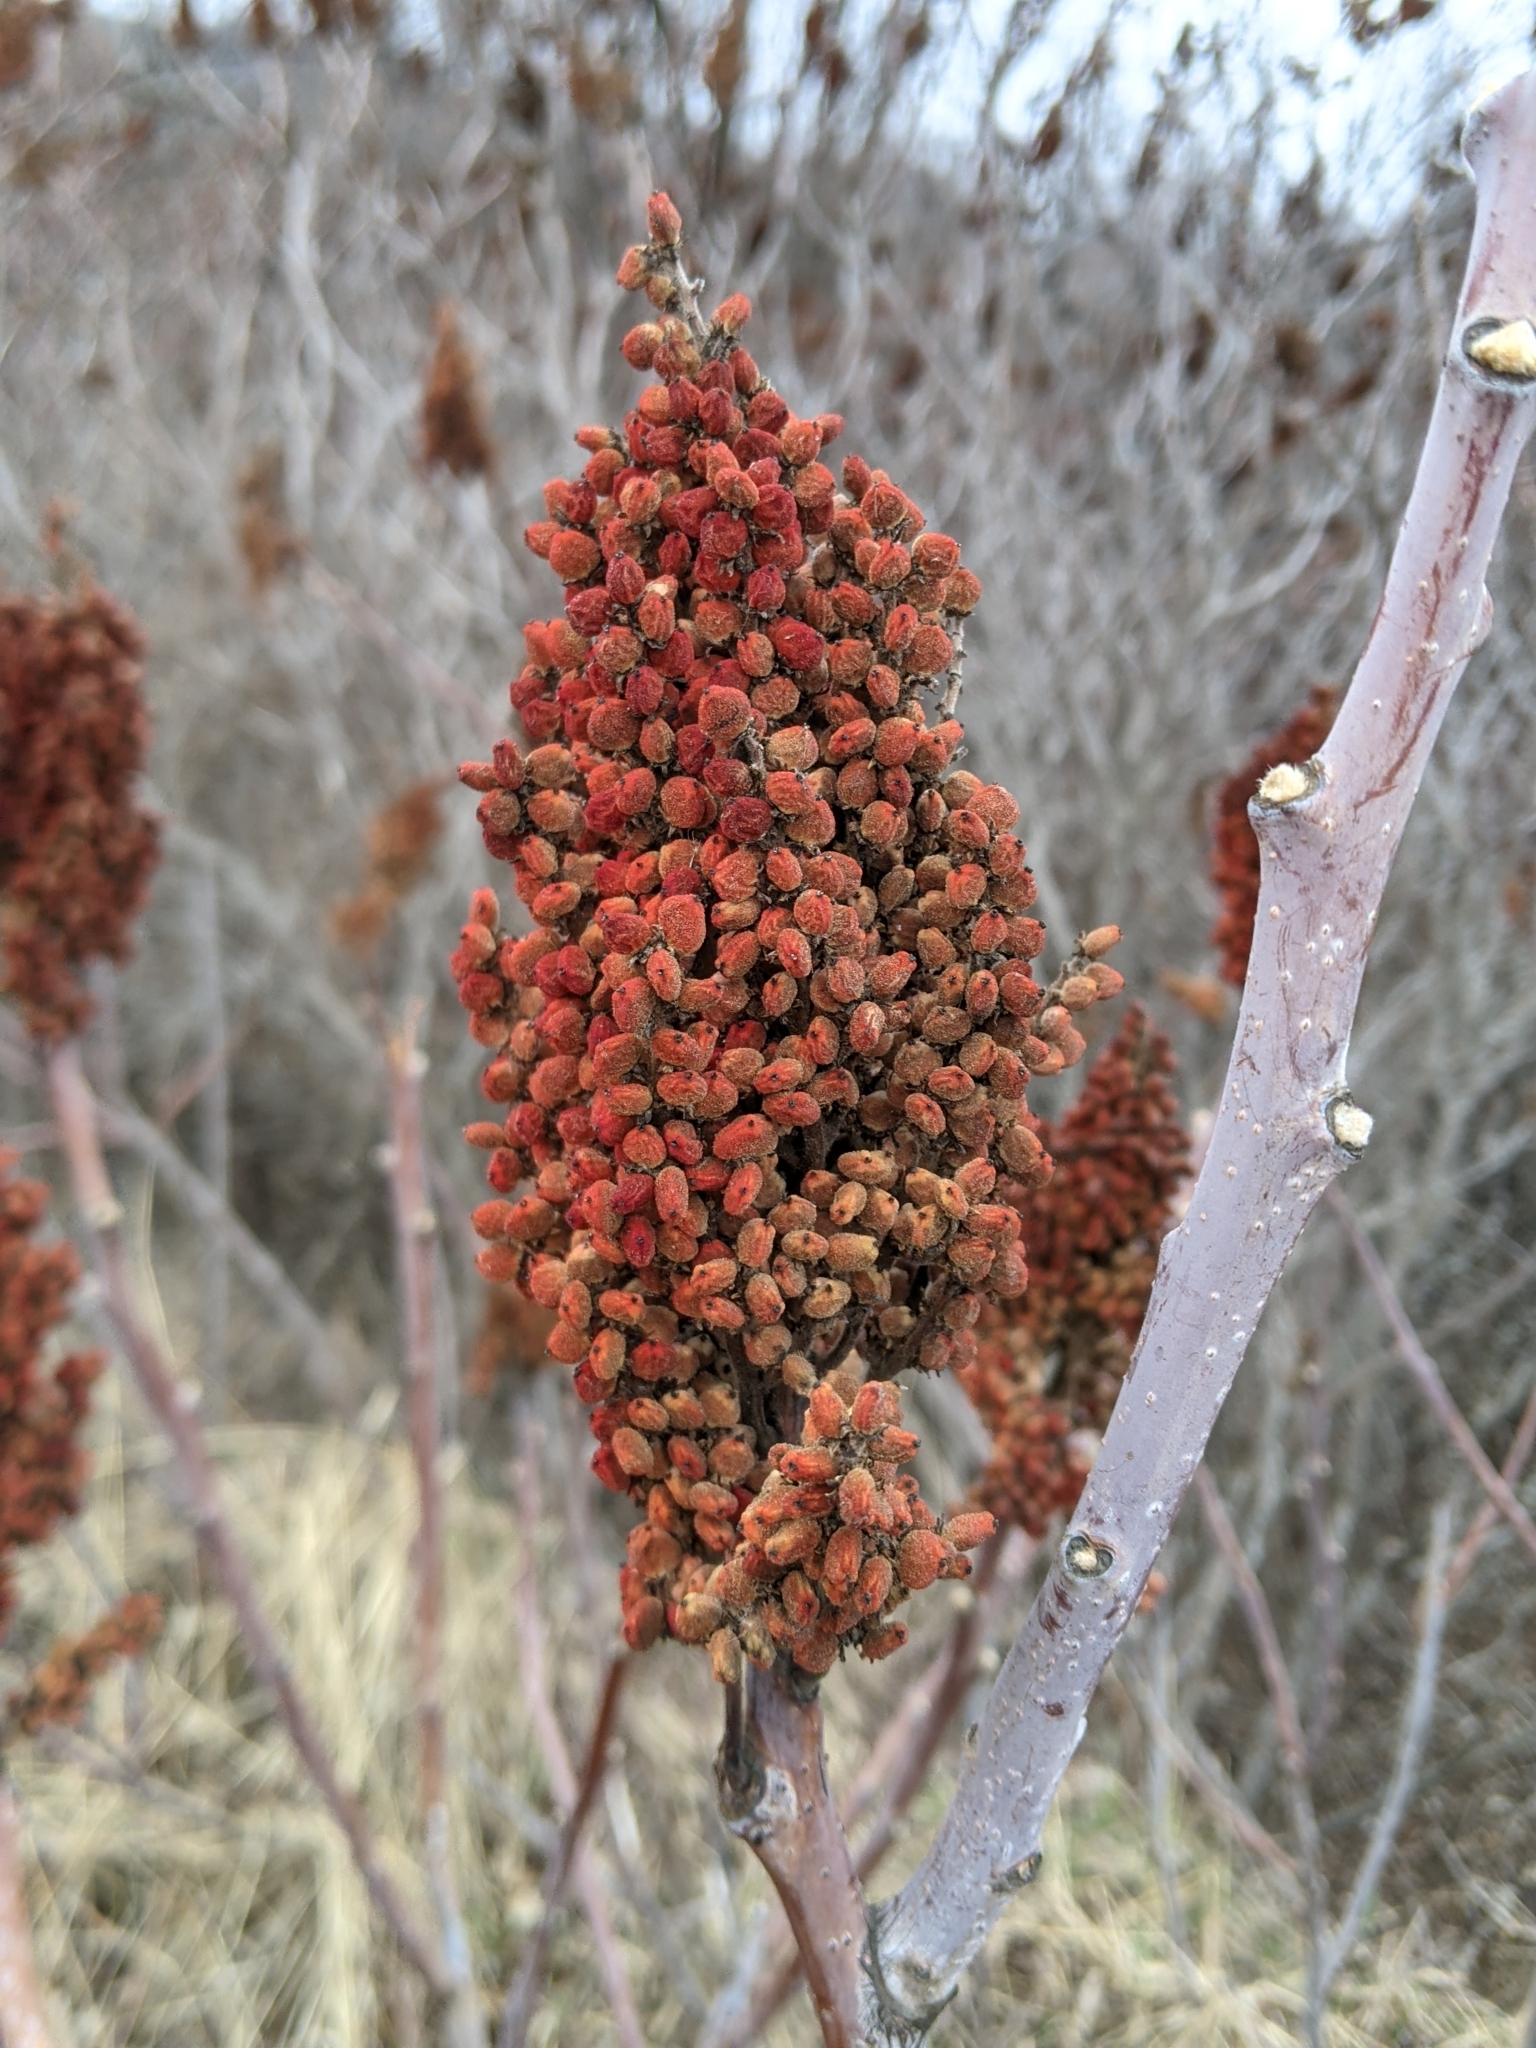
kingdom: Plantae
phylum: Tracheophyta
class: Magnoliopsida
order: Sapindales
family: Anacardiaceae
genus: Rhus
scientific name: Rhus glabra
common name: Scarlet sumac
